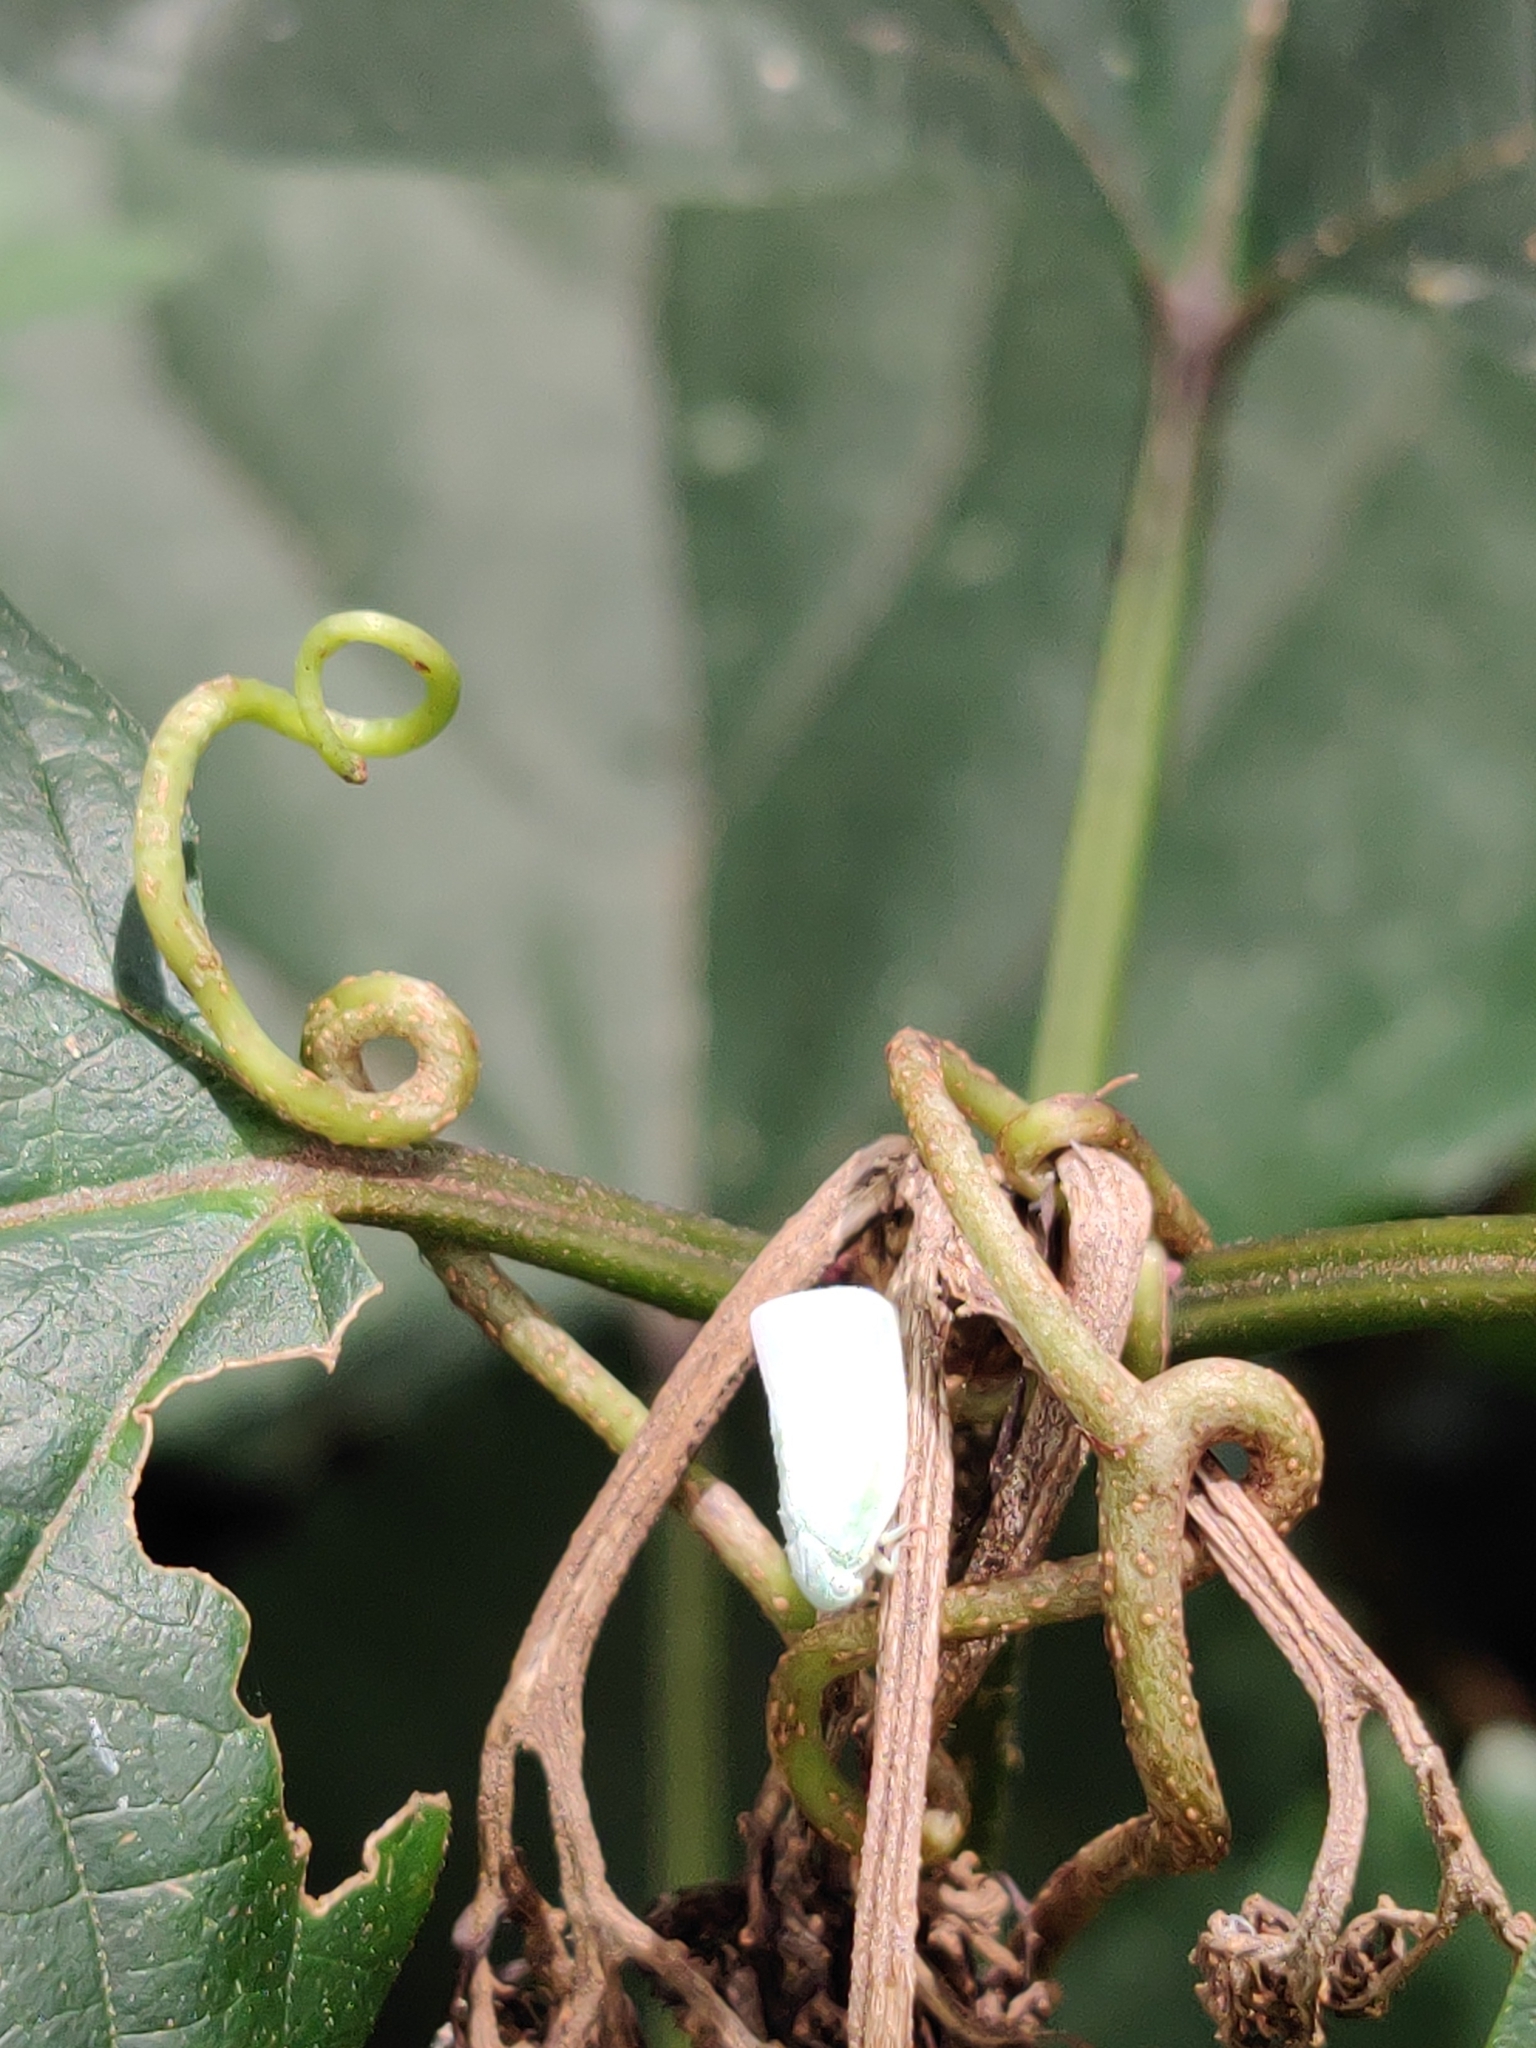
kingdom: Animalia
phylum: Arthropoda
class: Insecta
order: Hemiptera
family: Flatidae
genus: Flatormenis
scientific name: Flatormenis proxima
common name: Northern flatid planthopper
